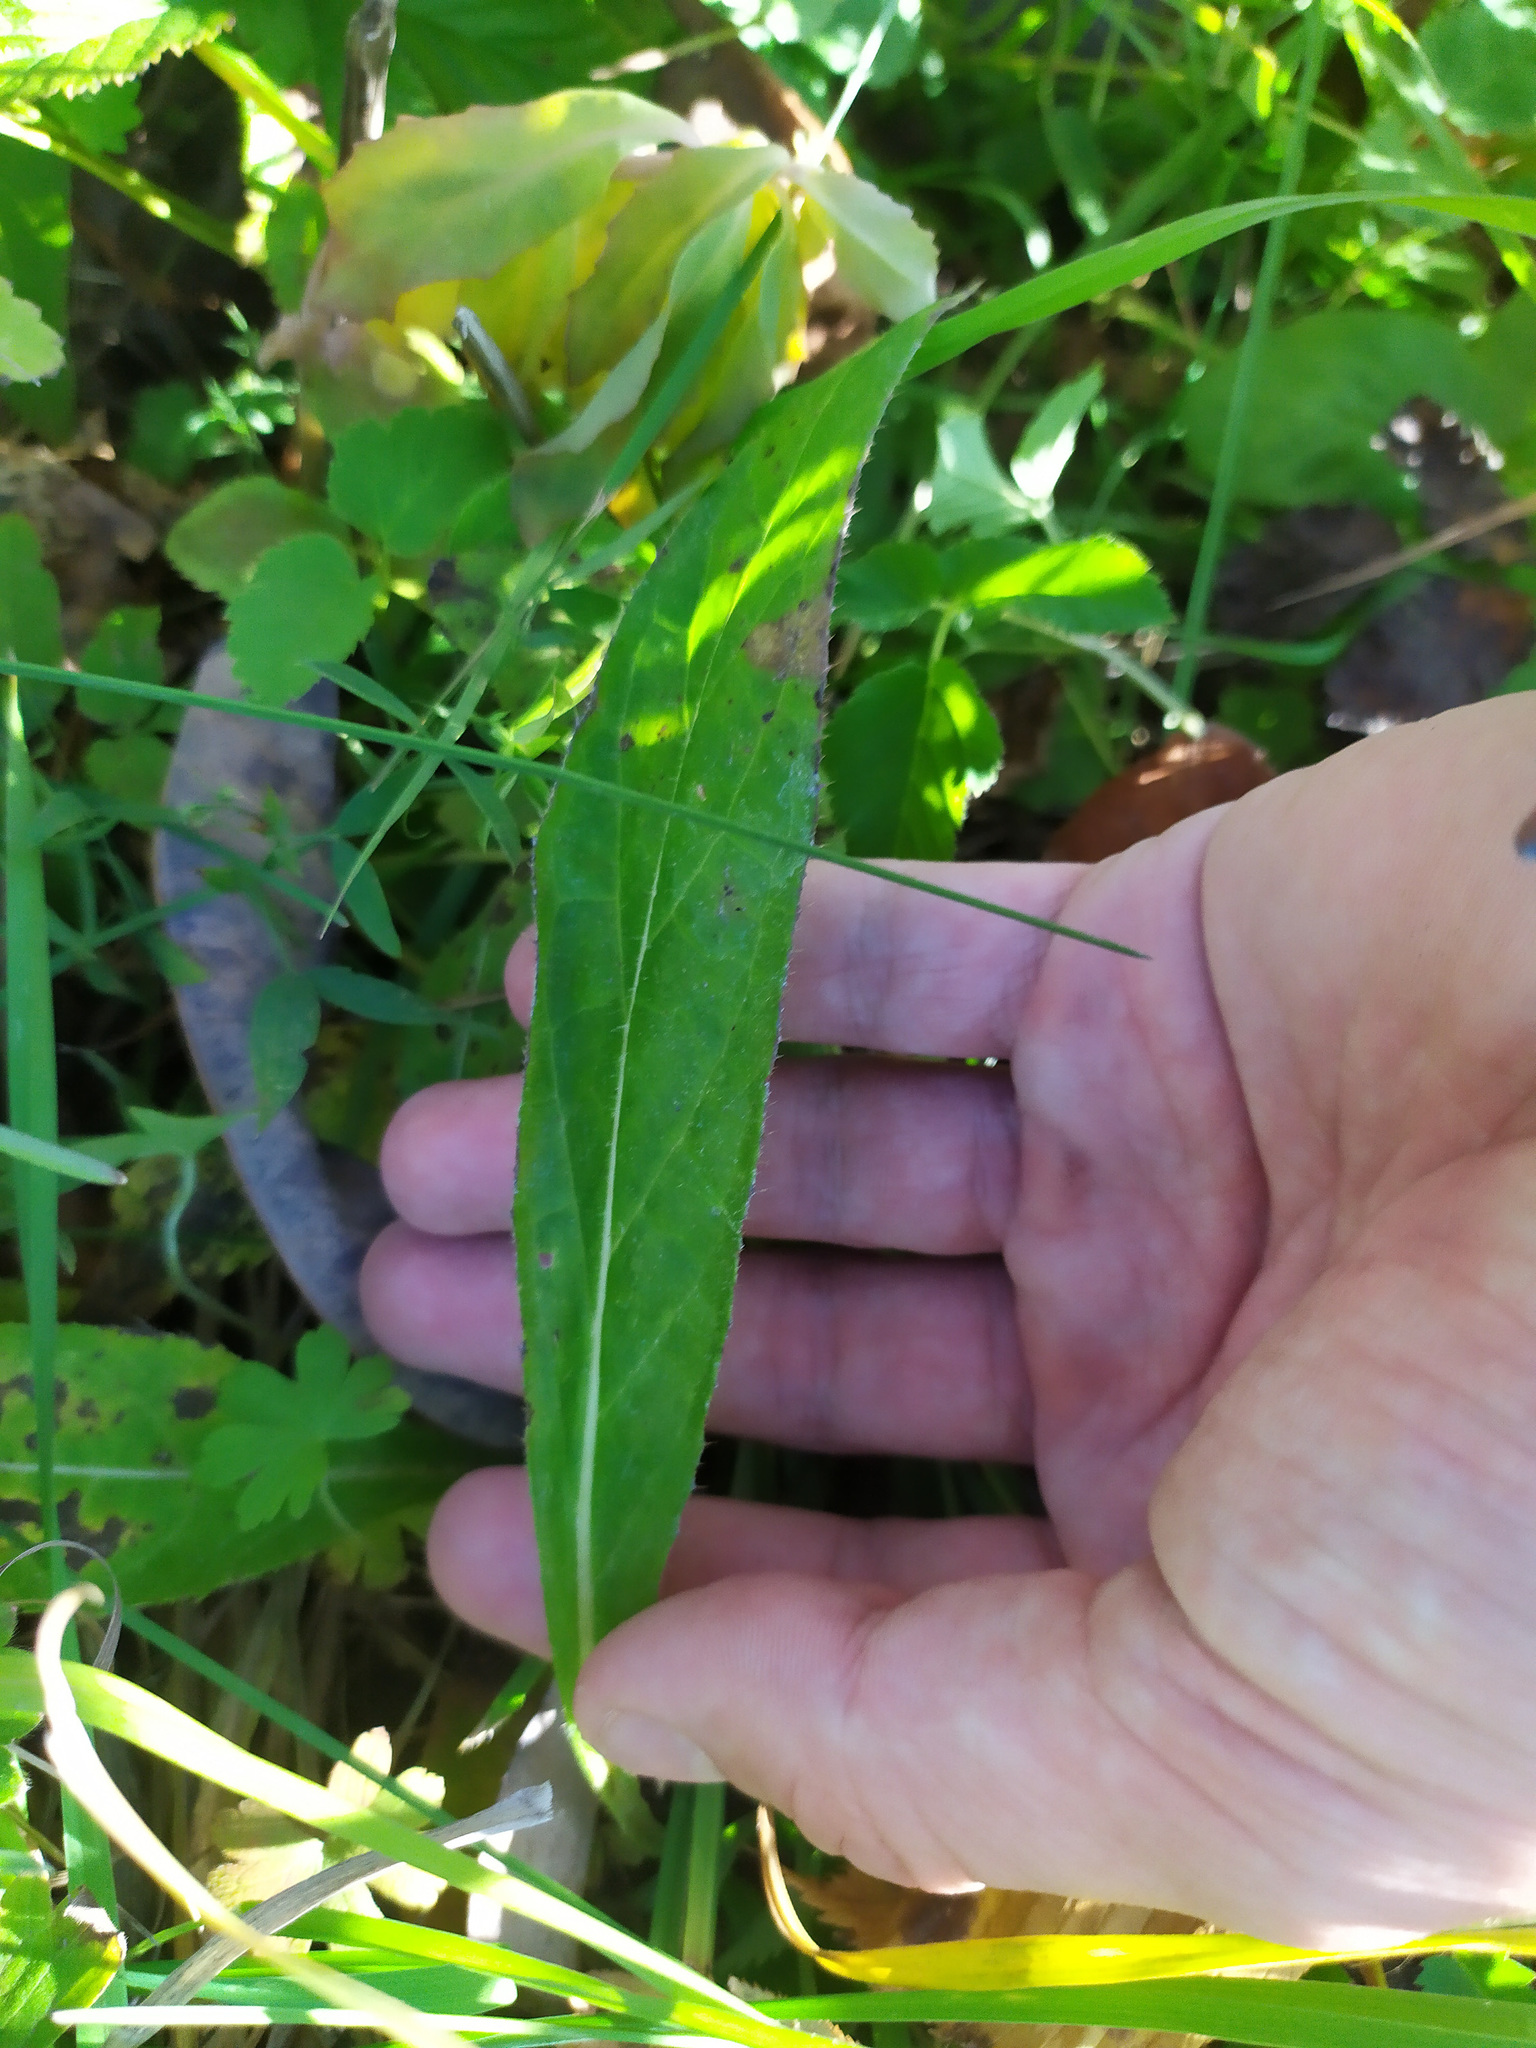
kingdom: Plantae
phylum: Tracheophyta
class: Magnoliopsida
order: Asterales
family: Asteraceae
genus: Cirsium
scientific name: Cirsium
